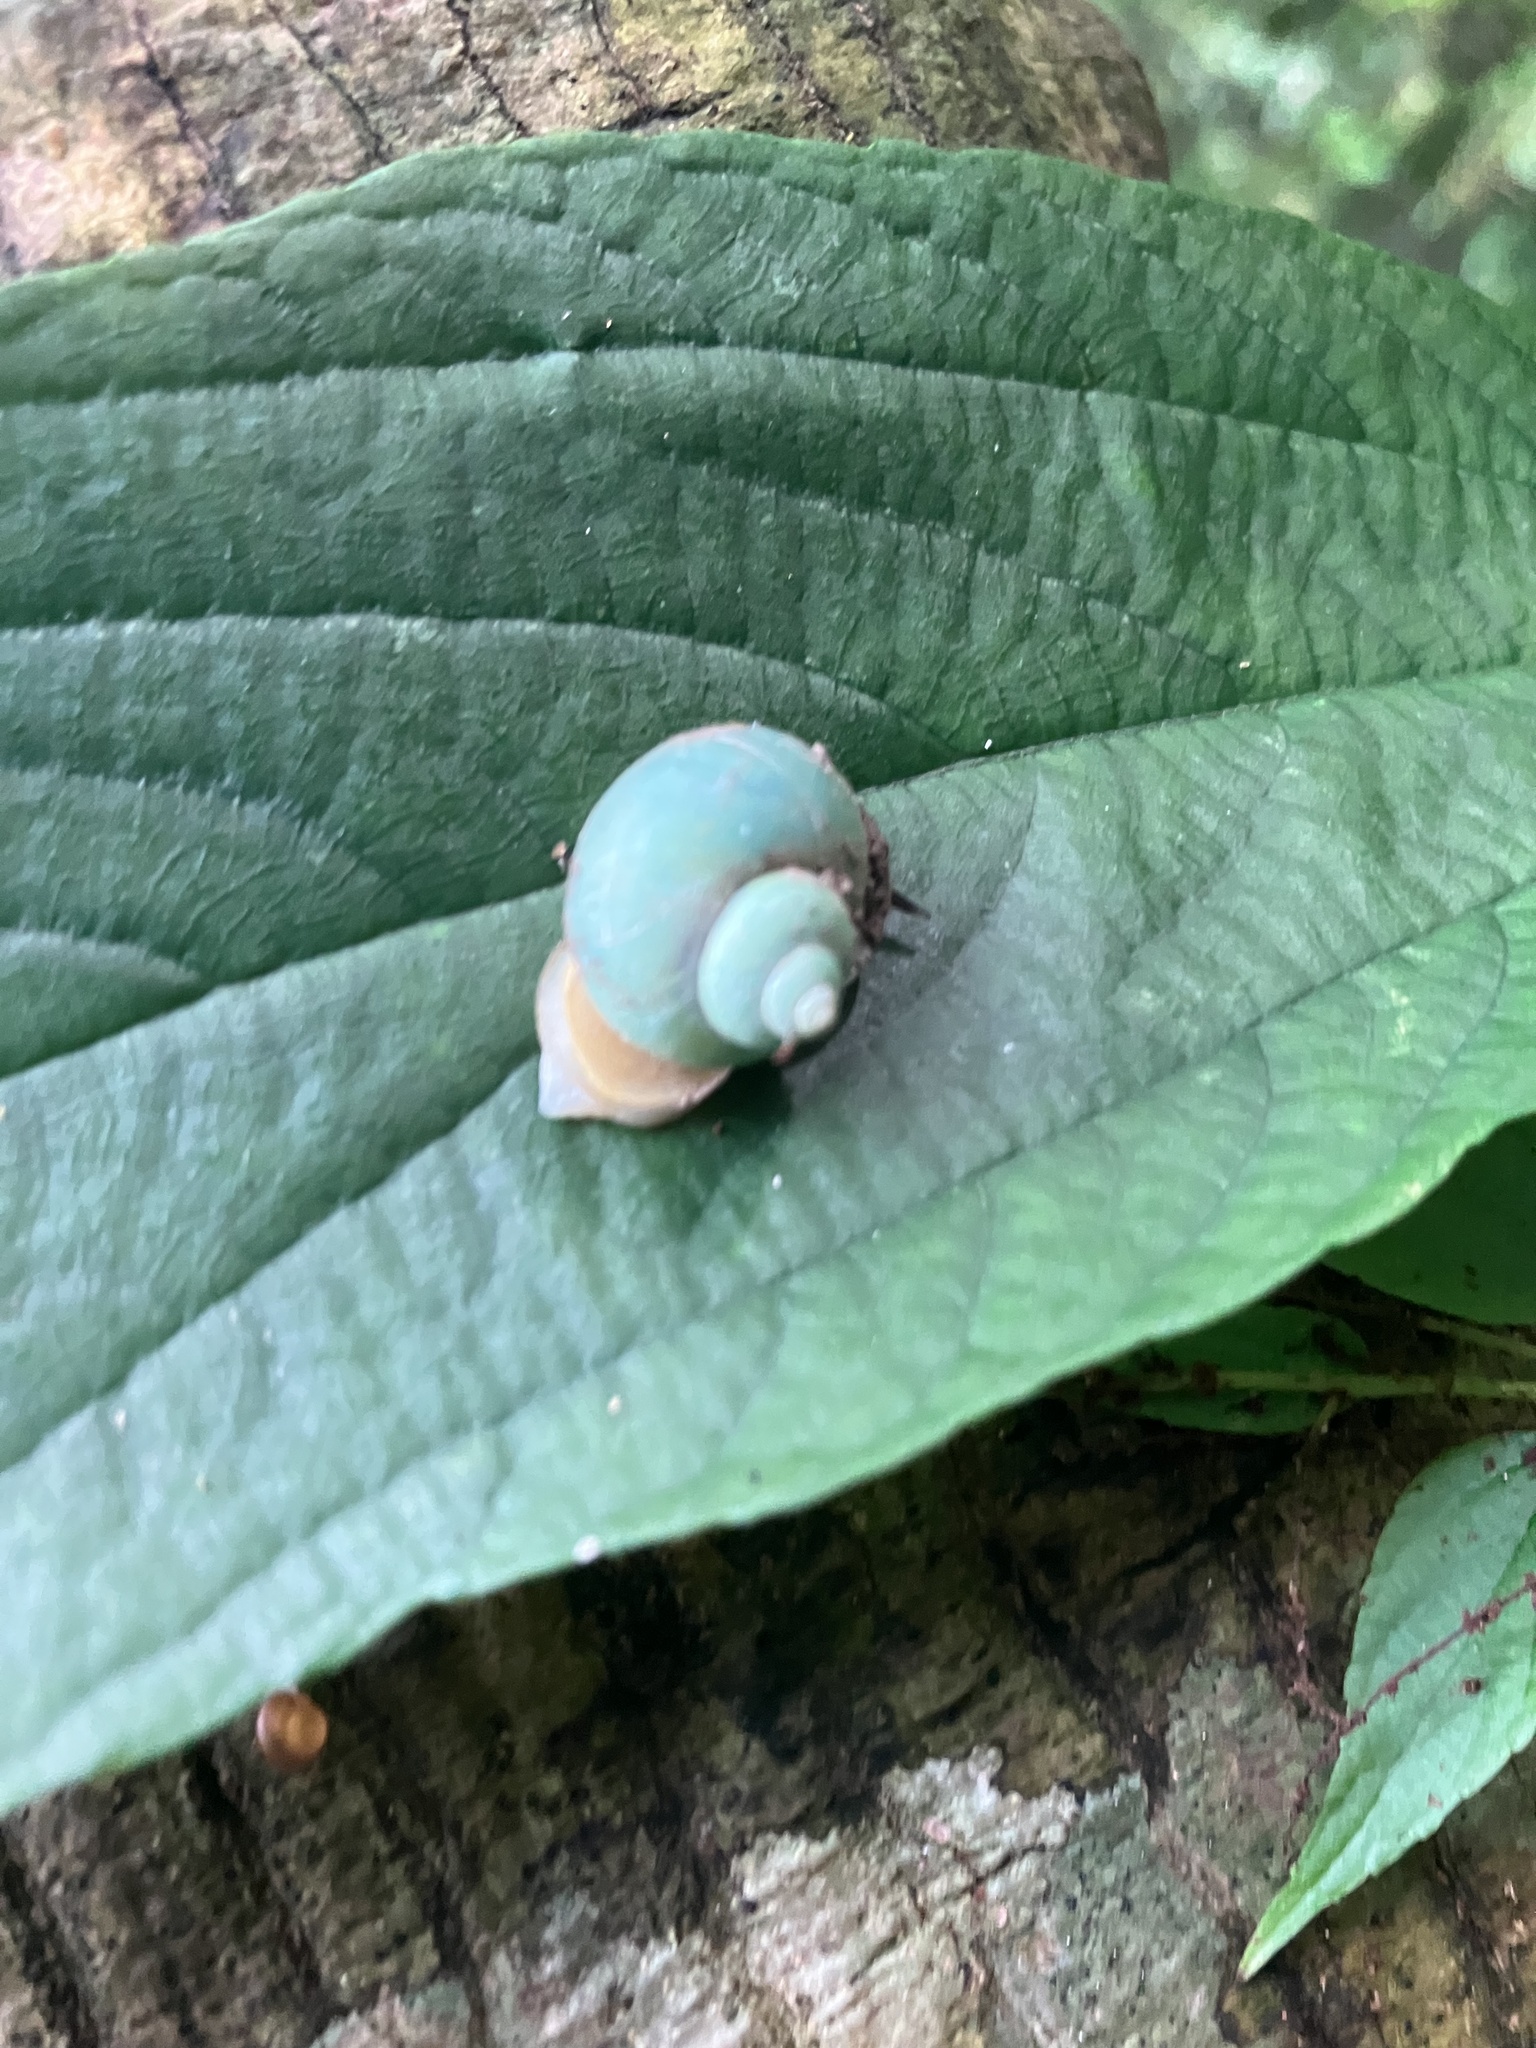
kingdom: Animalia
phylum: Mollusca
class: Gastropoda
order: Architaenioglossa
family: Cyclophoridae
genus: Leptopoma
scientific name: Leptopoma nitidum
